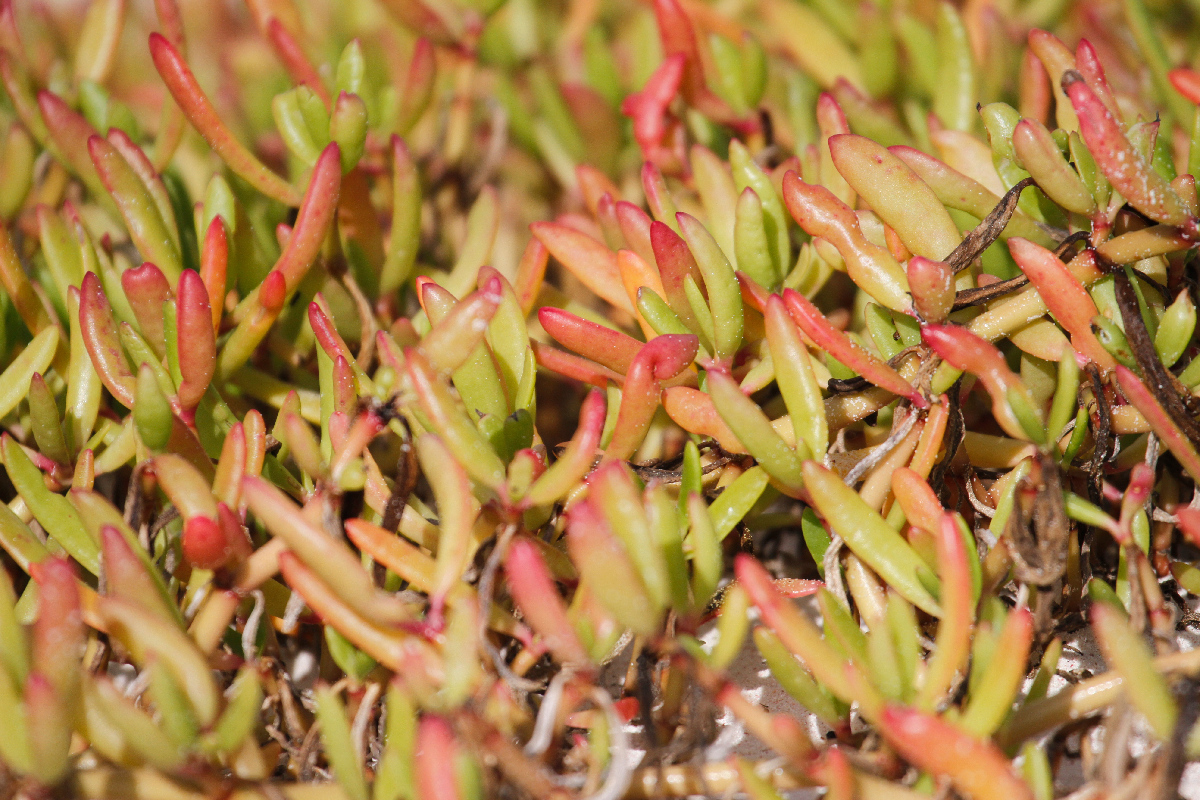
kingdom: Plantae
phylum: Tracheophyta
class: Magnoliopsida
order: Caryophyllales
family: Aizoaceae
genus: Sesuvium
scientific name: Sesuvium portulacastrum
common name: Sea-purslane
